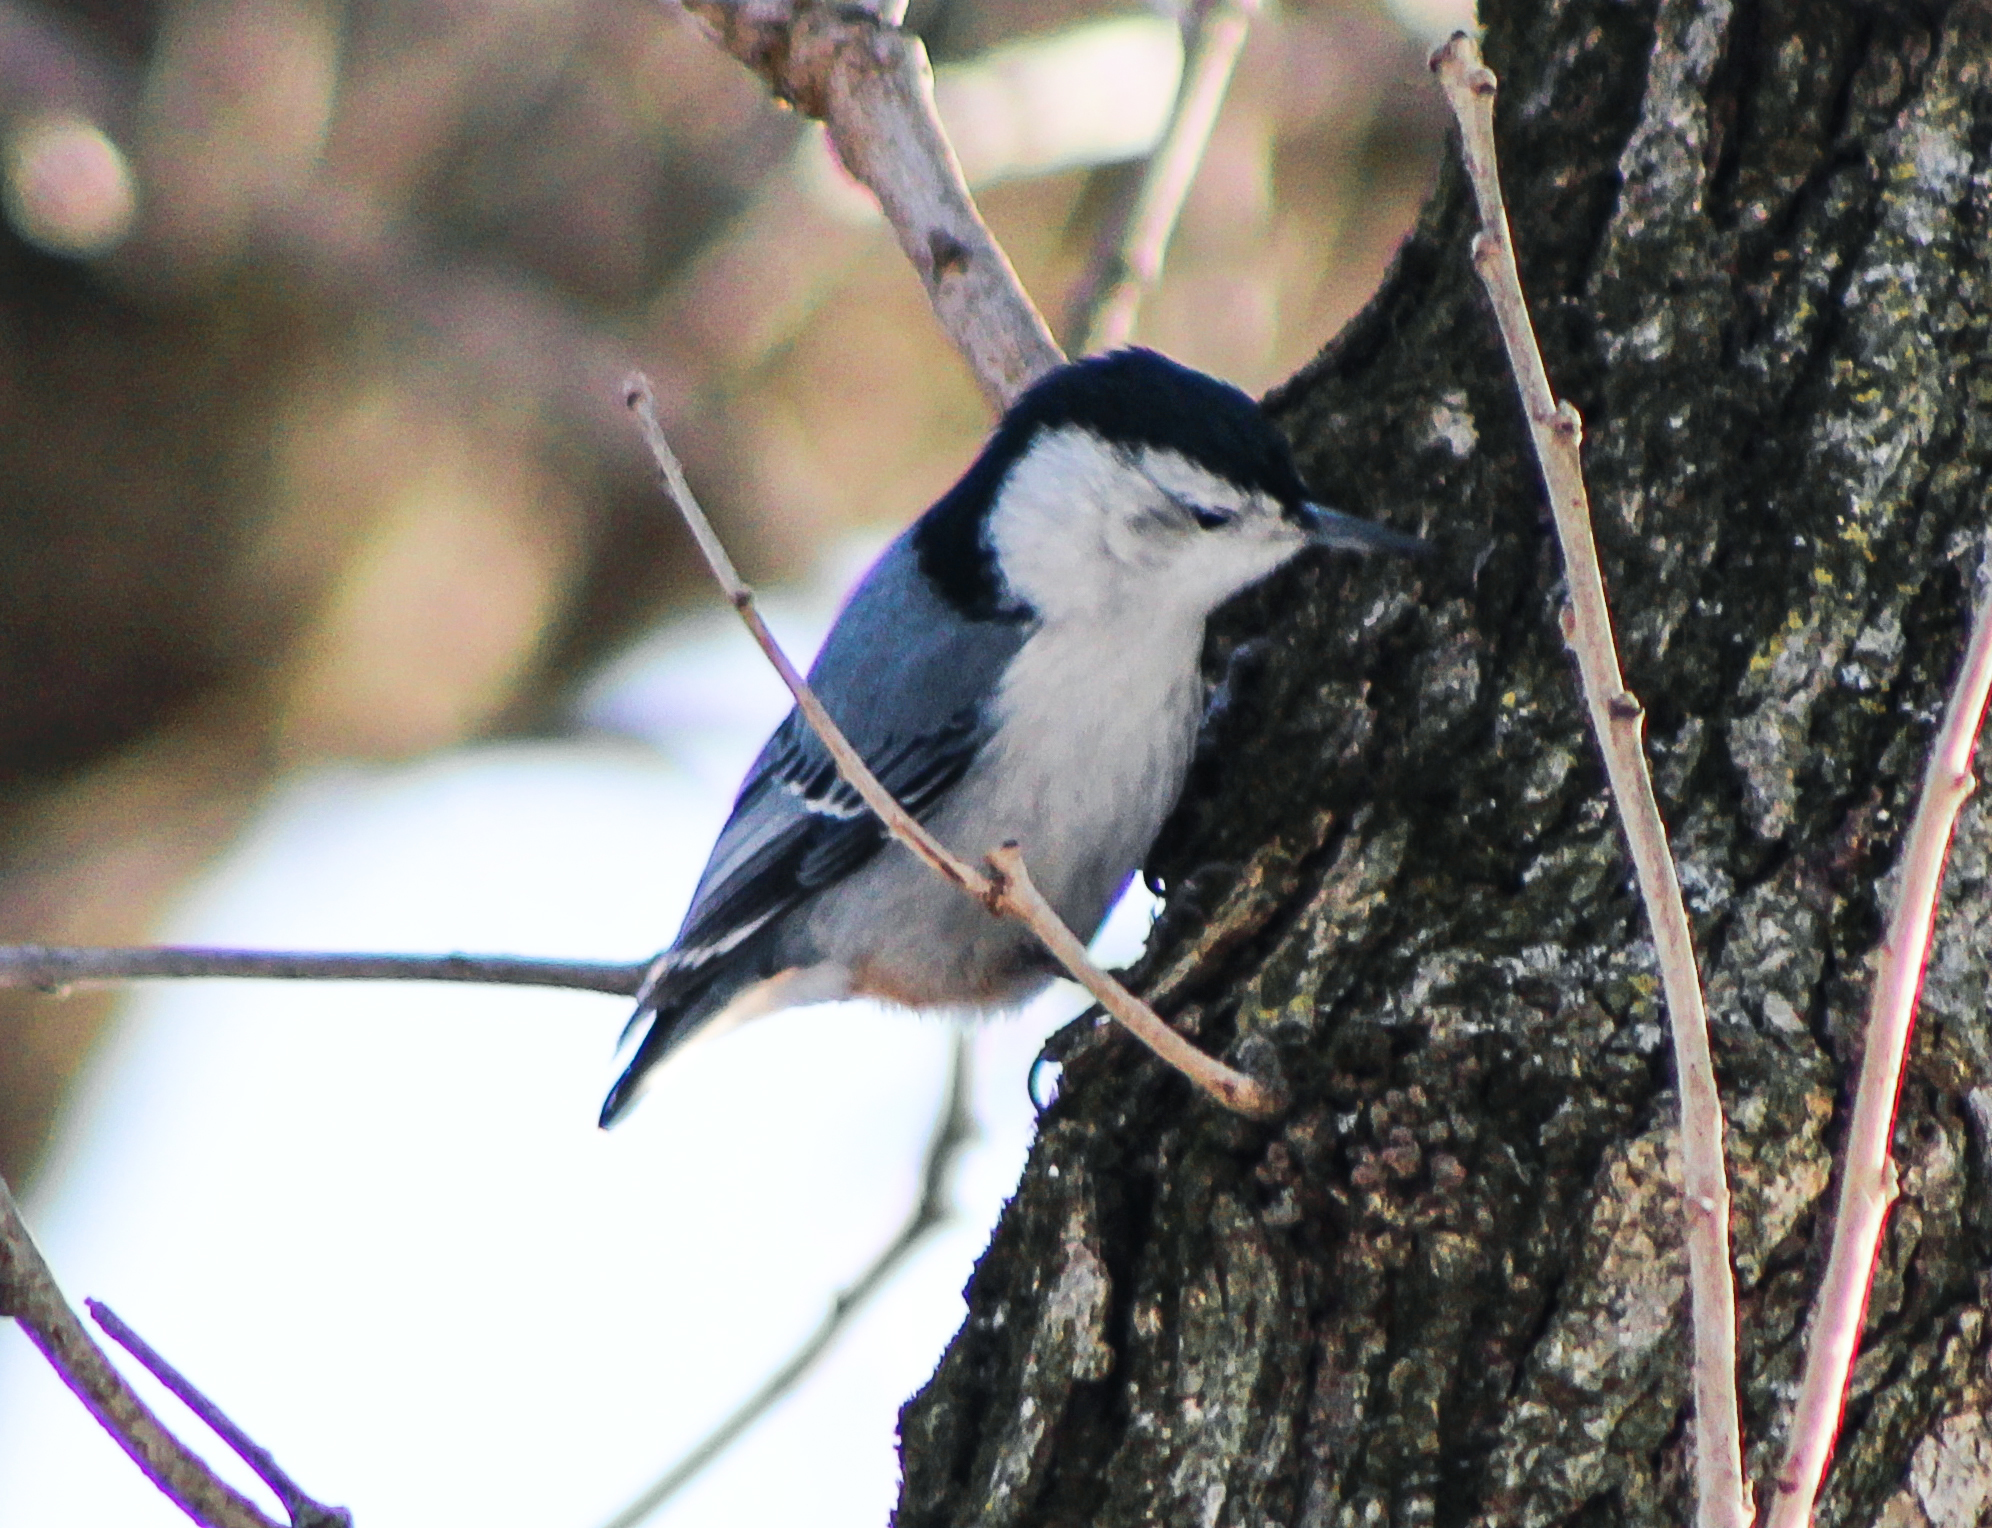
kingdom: Animalia
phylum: Chordata
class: Aves
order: Passeriformes
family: Sittidae
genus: Sitta
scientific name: Sitta carolinensis
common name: White-breasted nuthatch
